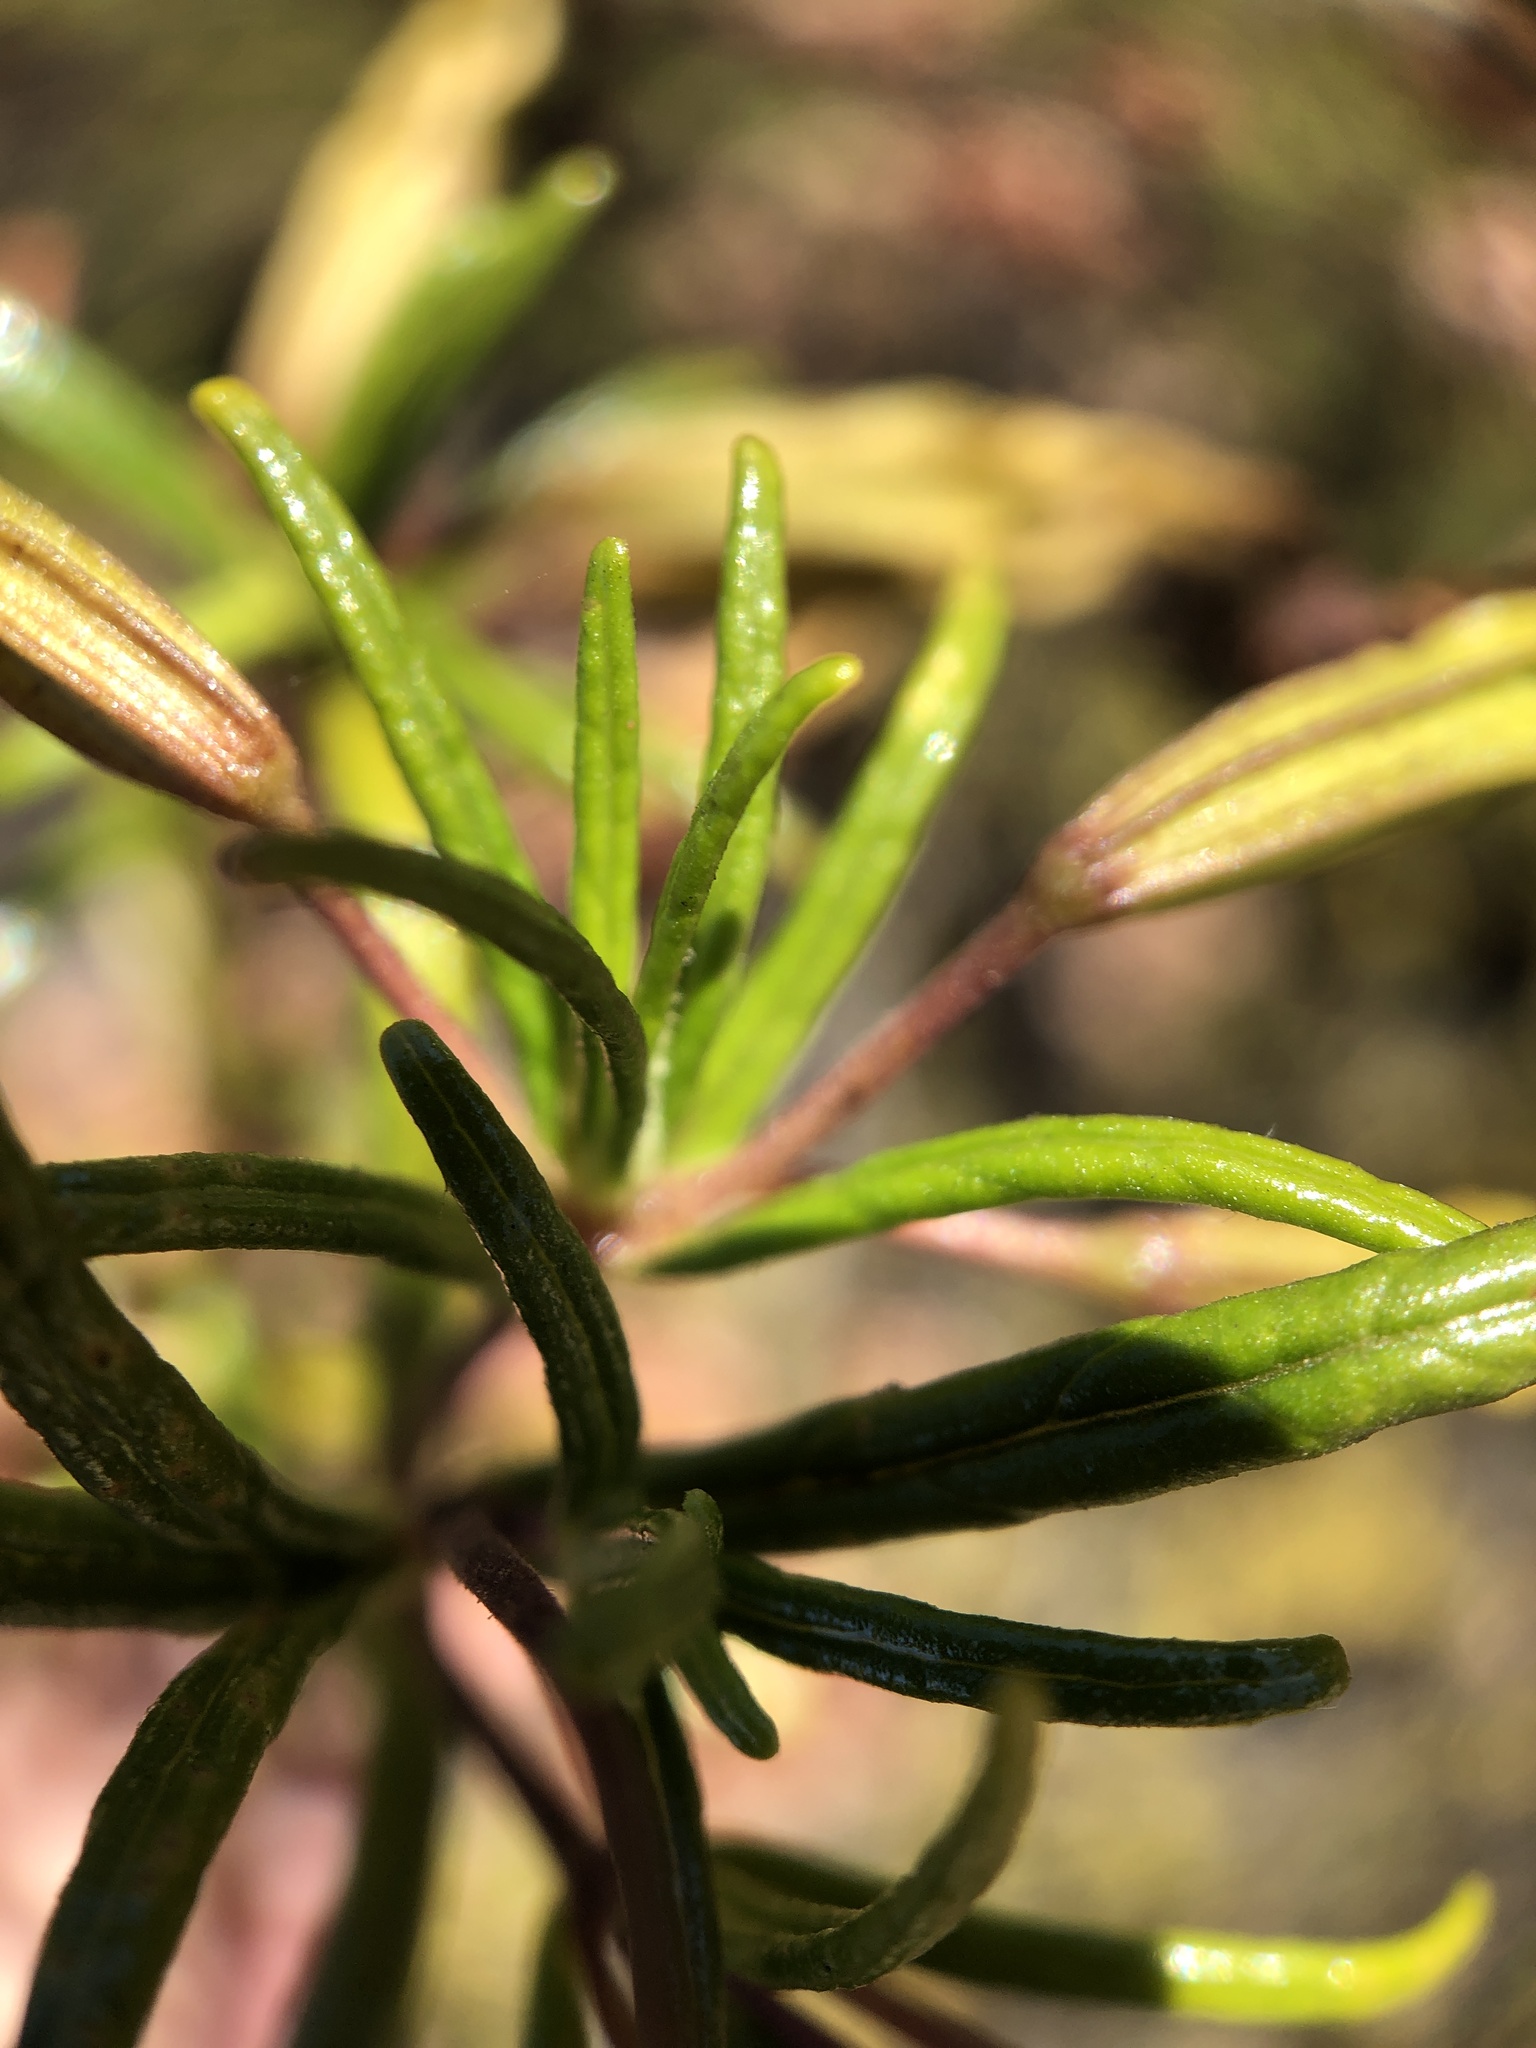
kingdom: Plantae
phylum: Tracheophyta
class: Magnoliopsida
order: Lamiales
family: Phrymaceae
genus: Diplacus
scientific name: Diplacus puniceus
